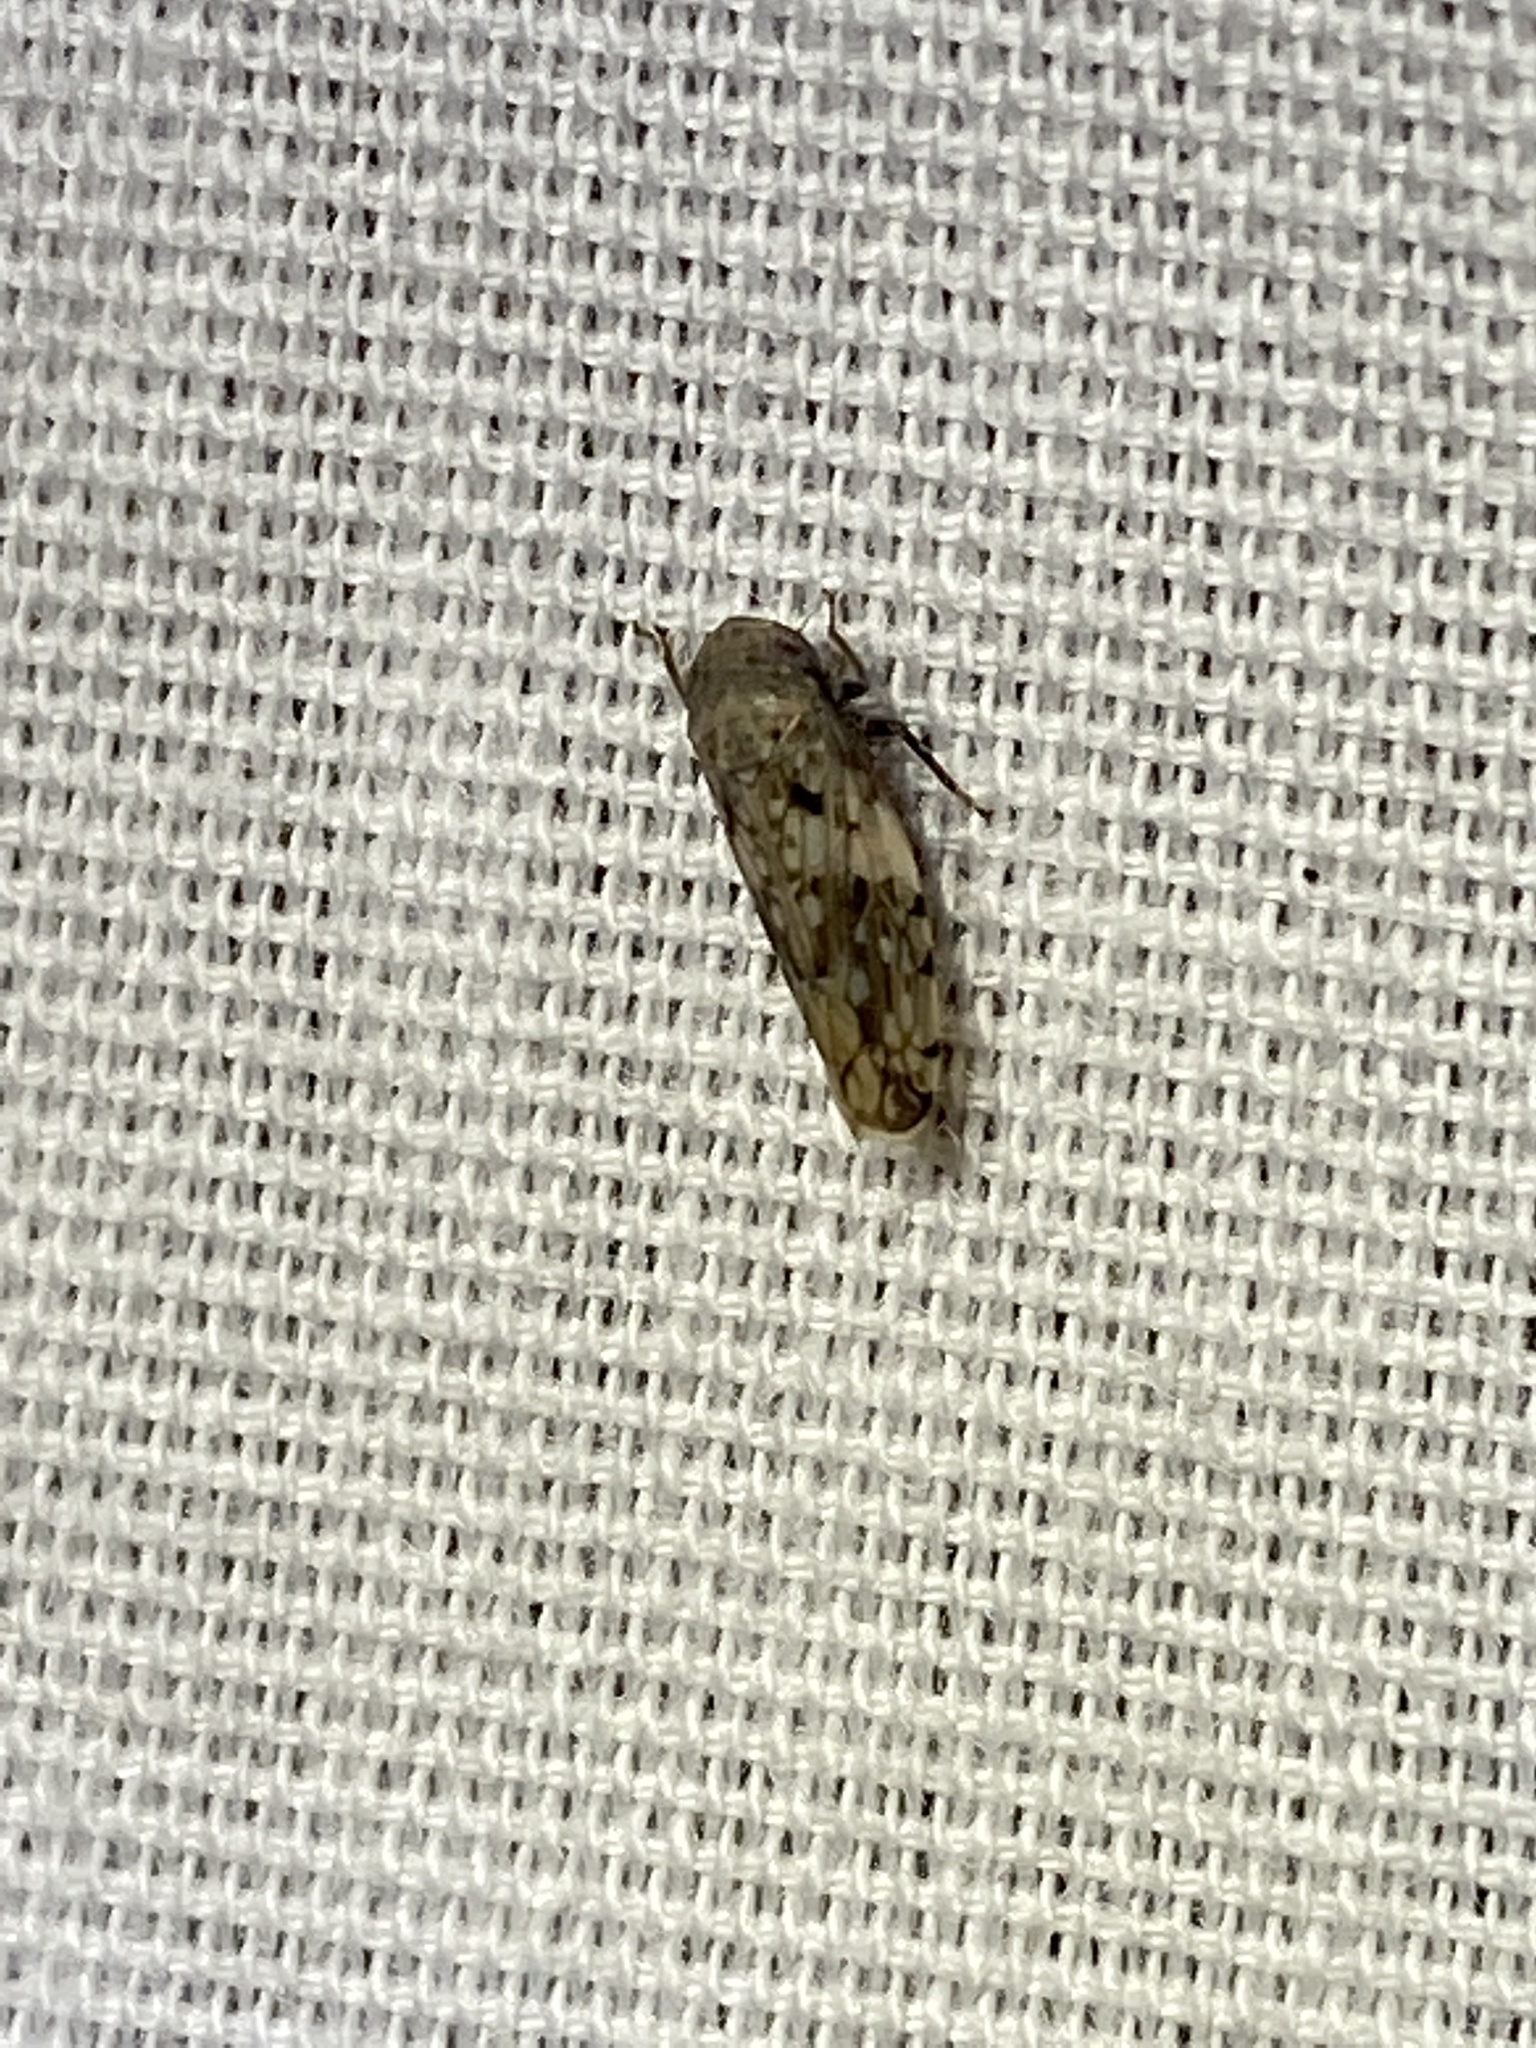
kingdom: Animalia
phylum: Arthropoda
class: Insecta
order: Hemiptera
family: Cicadellidae
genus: Menosoma
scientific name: Menosoma cinctum
